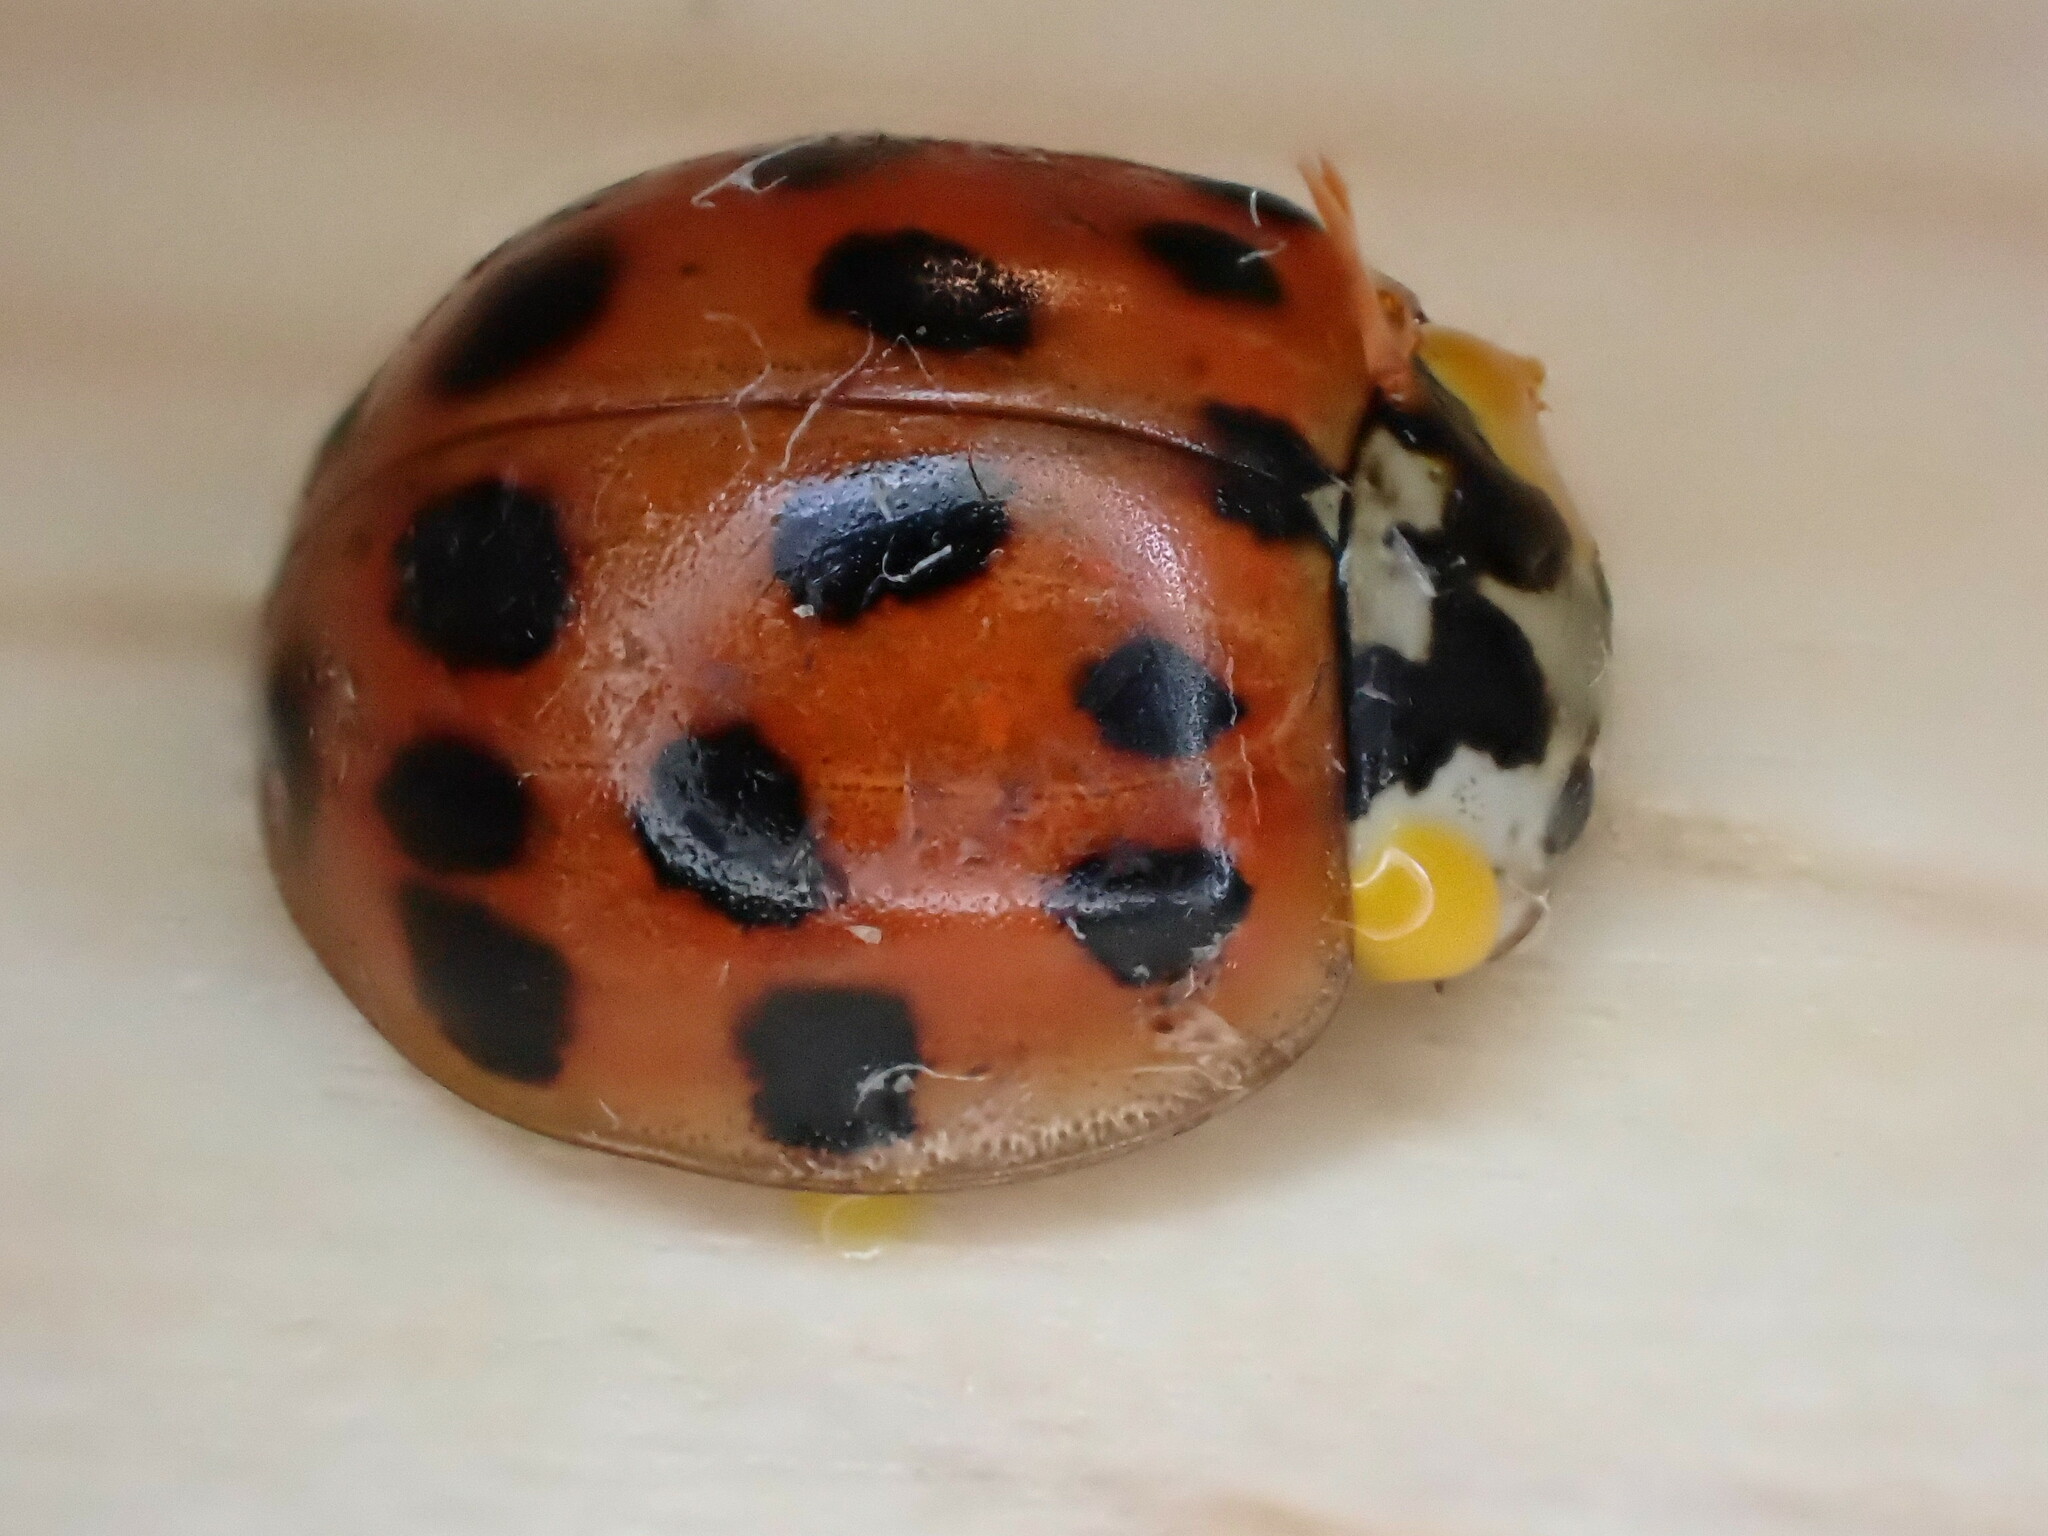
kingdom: Animalia
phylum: Arthropoda
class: Insecta
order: Coleoptera
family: Coccinellidae
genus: Harmonia
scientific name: Harmonia axyridis
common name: Harlequin ladybird
